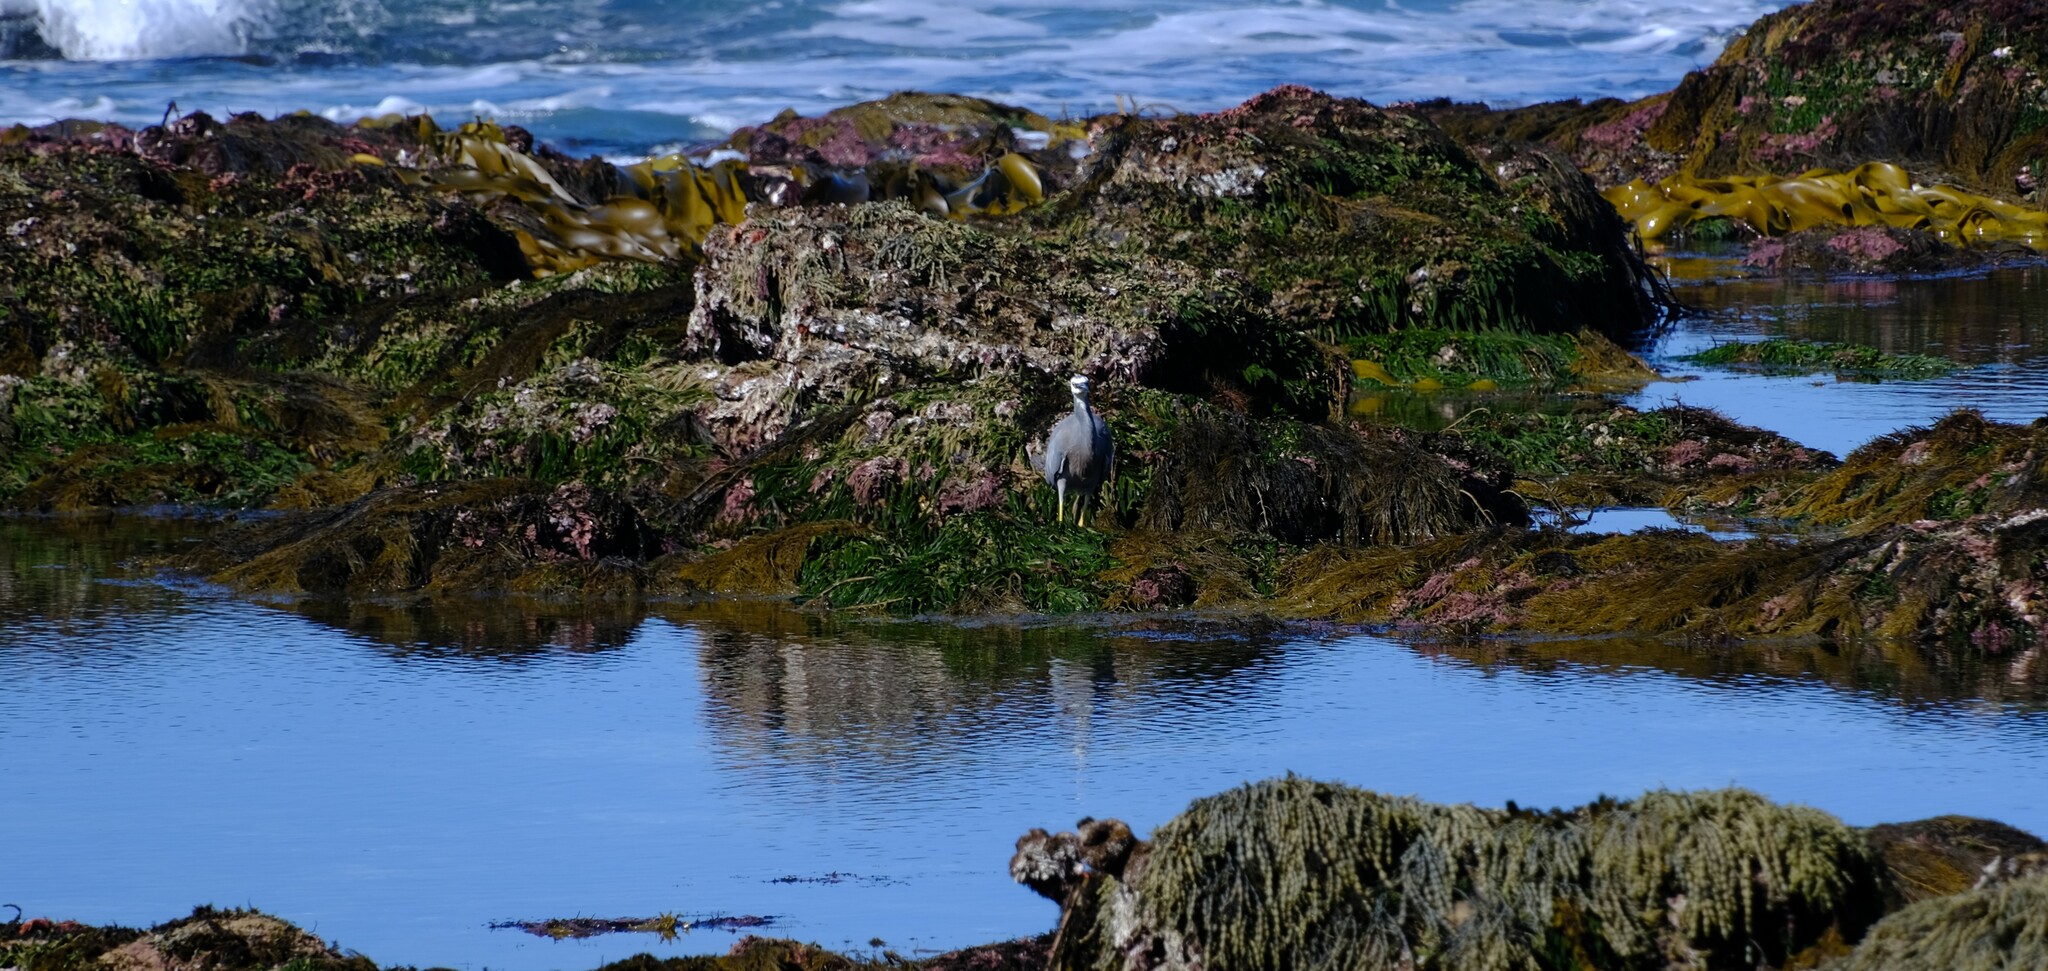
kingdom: Animalia
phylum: Chordata
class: Aves
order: Pelecaniformes
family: Ardeidae
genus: Egretta
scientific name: Egretta novaehollandiae
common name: White-faced heron
